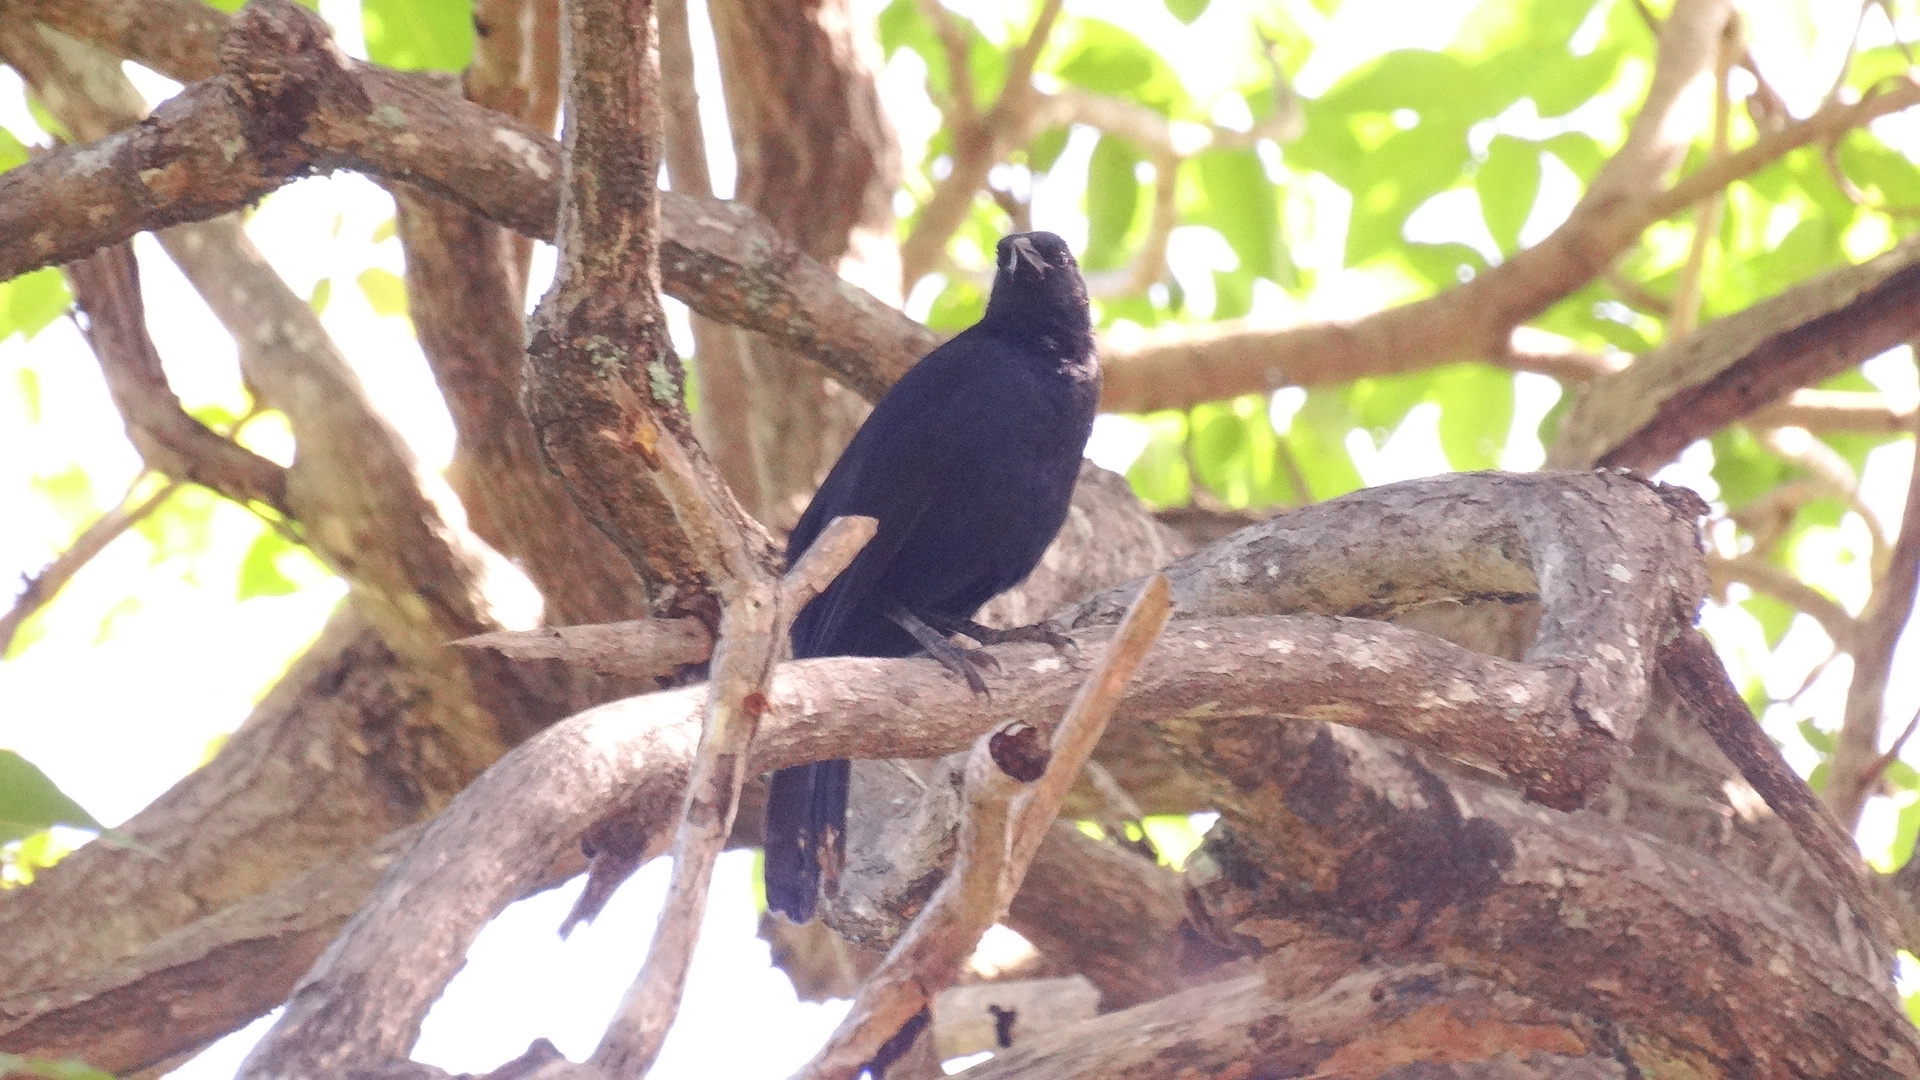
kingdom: Animalia
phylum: Chordata
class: Aves
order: Passeriformes
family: Icteridae
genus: Dives
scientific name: Dives dives
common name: Melodious blackbird
